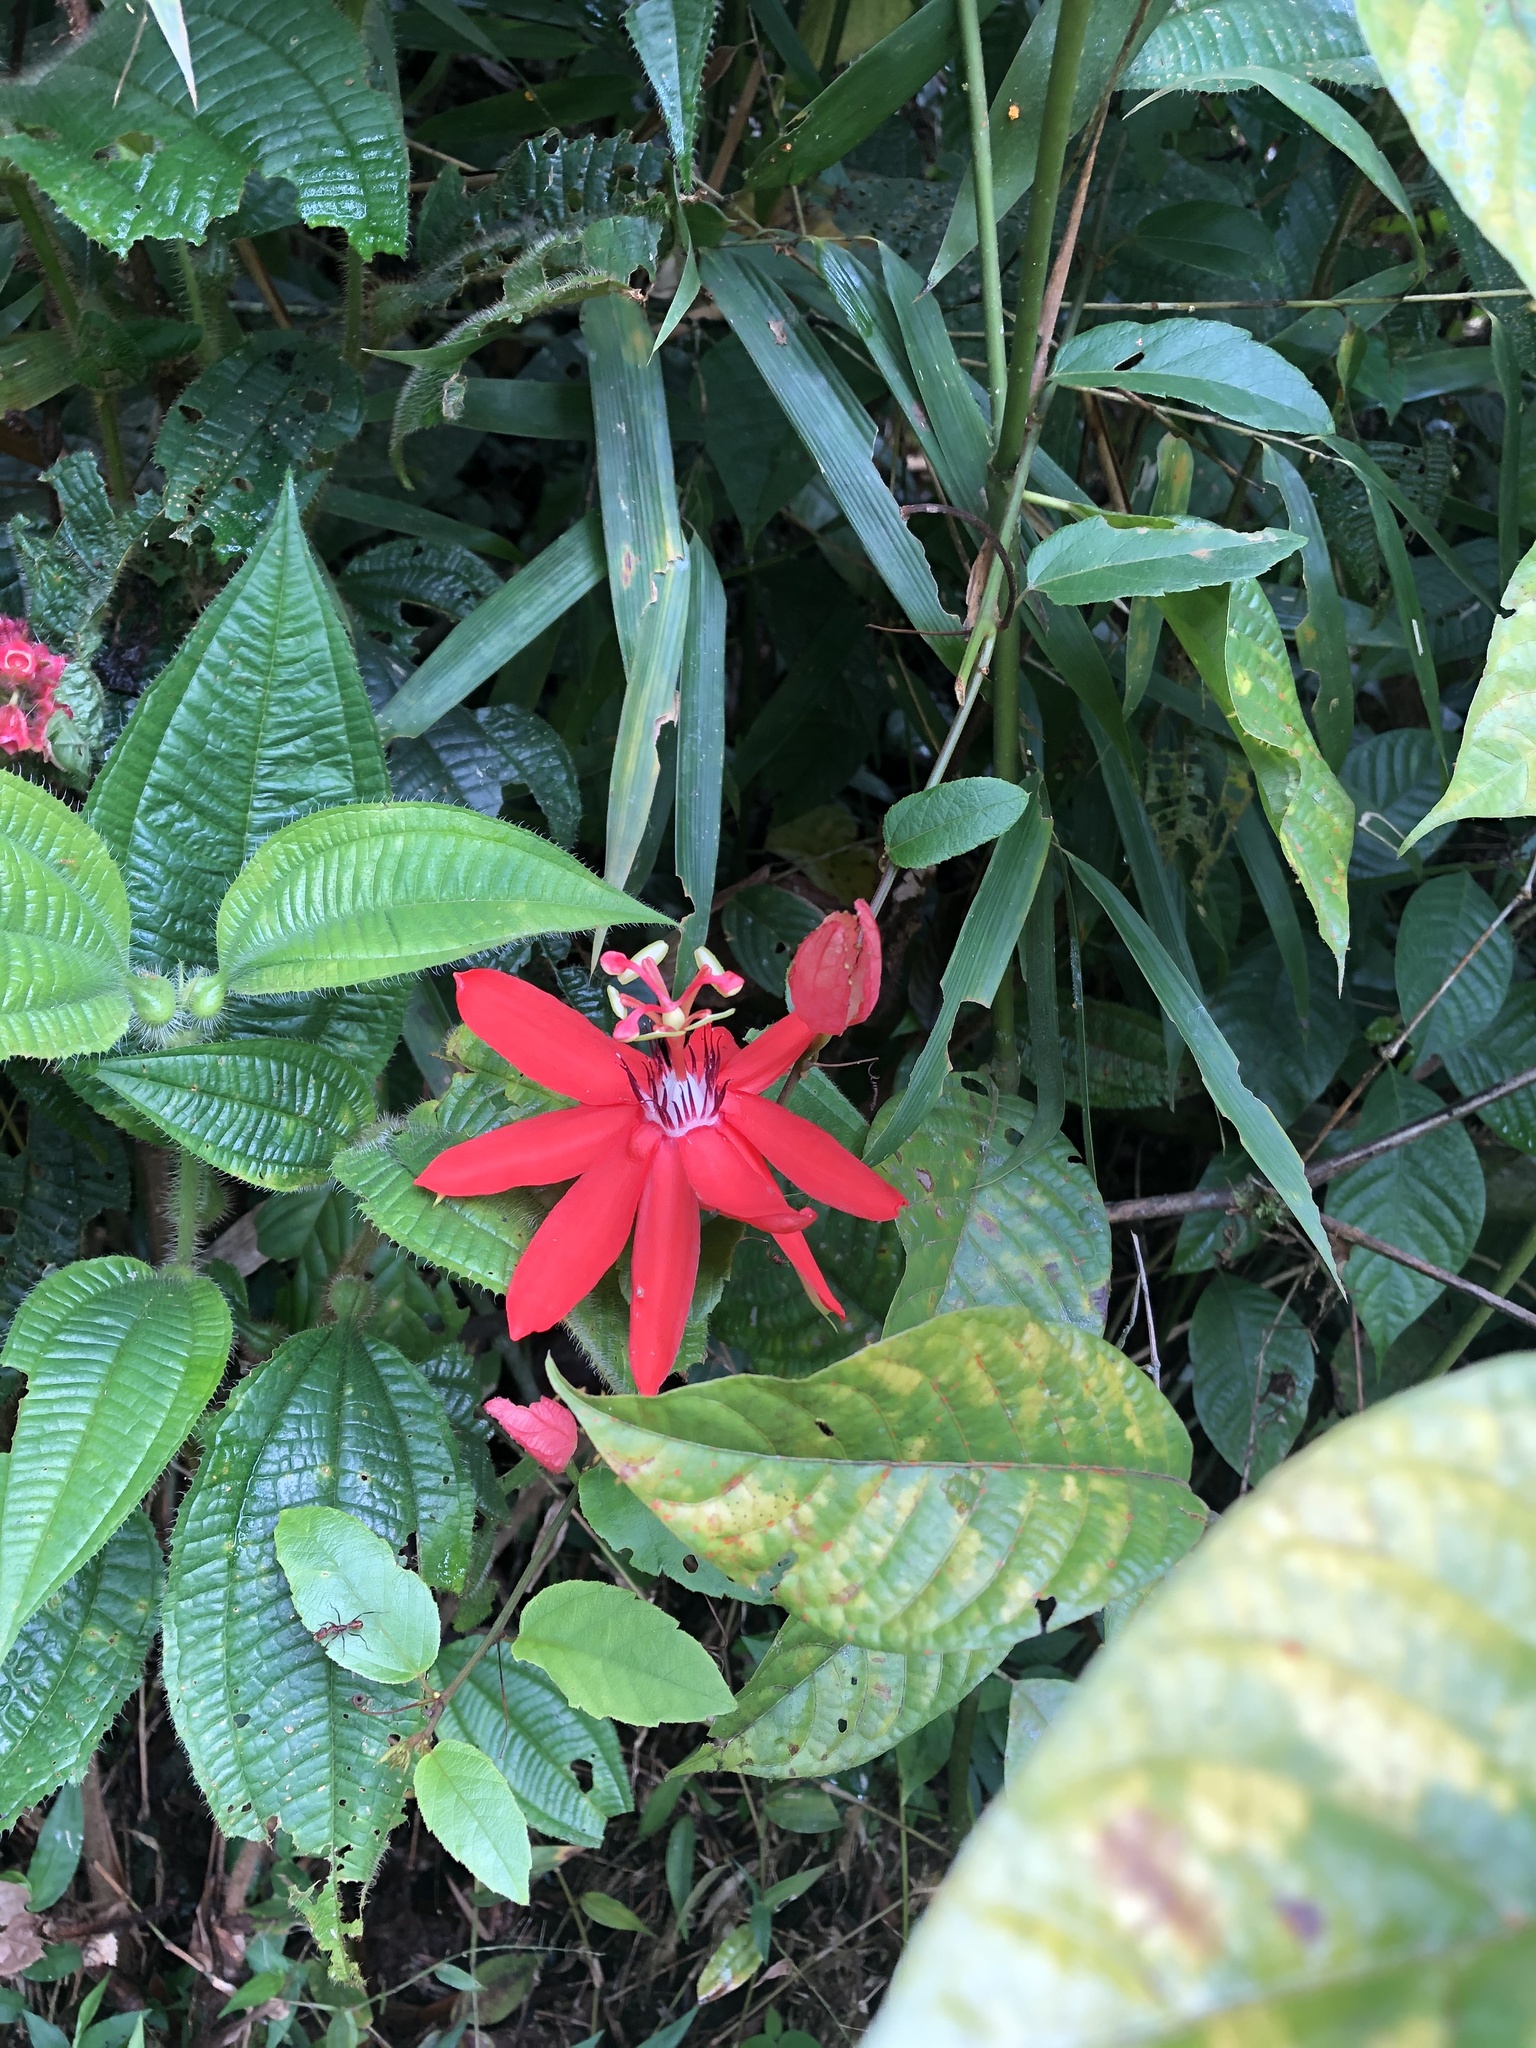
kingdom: Plantae
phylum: Tracheophyta
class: Magnoliopsida
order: Malpighiales
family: Passifloraceae
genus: Passiflora
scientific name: Passiflora miniata
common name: Red granadilla
